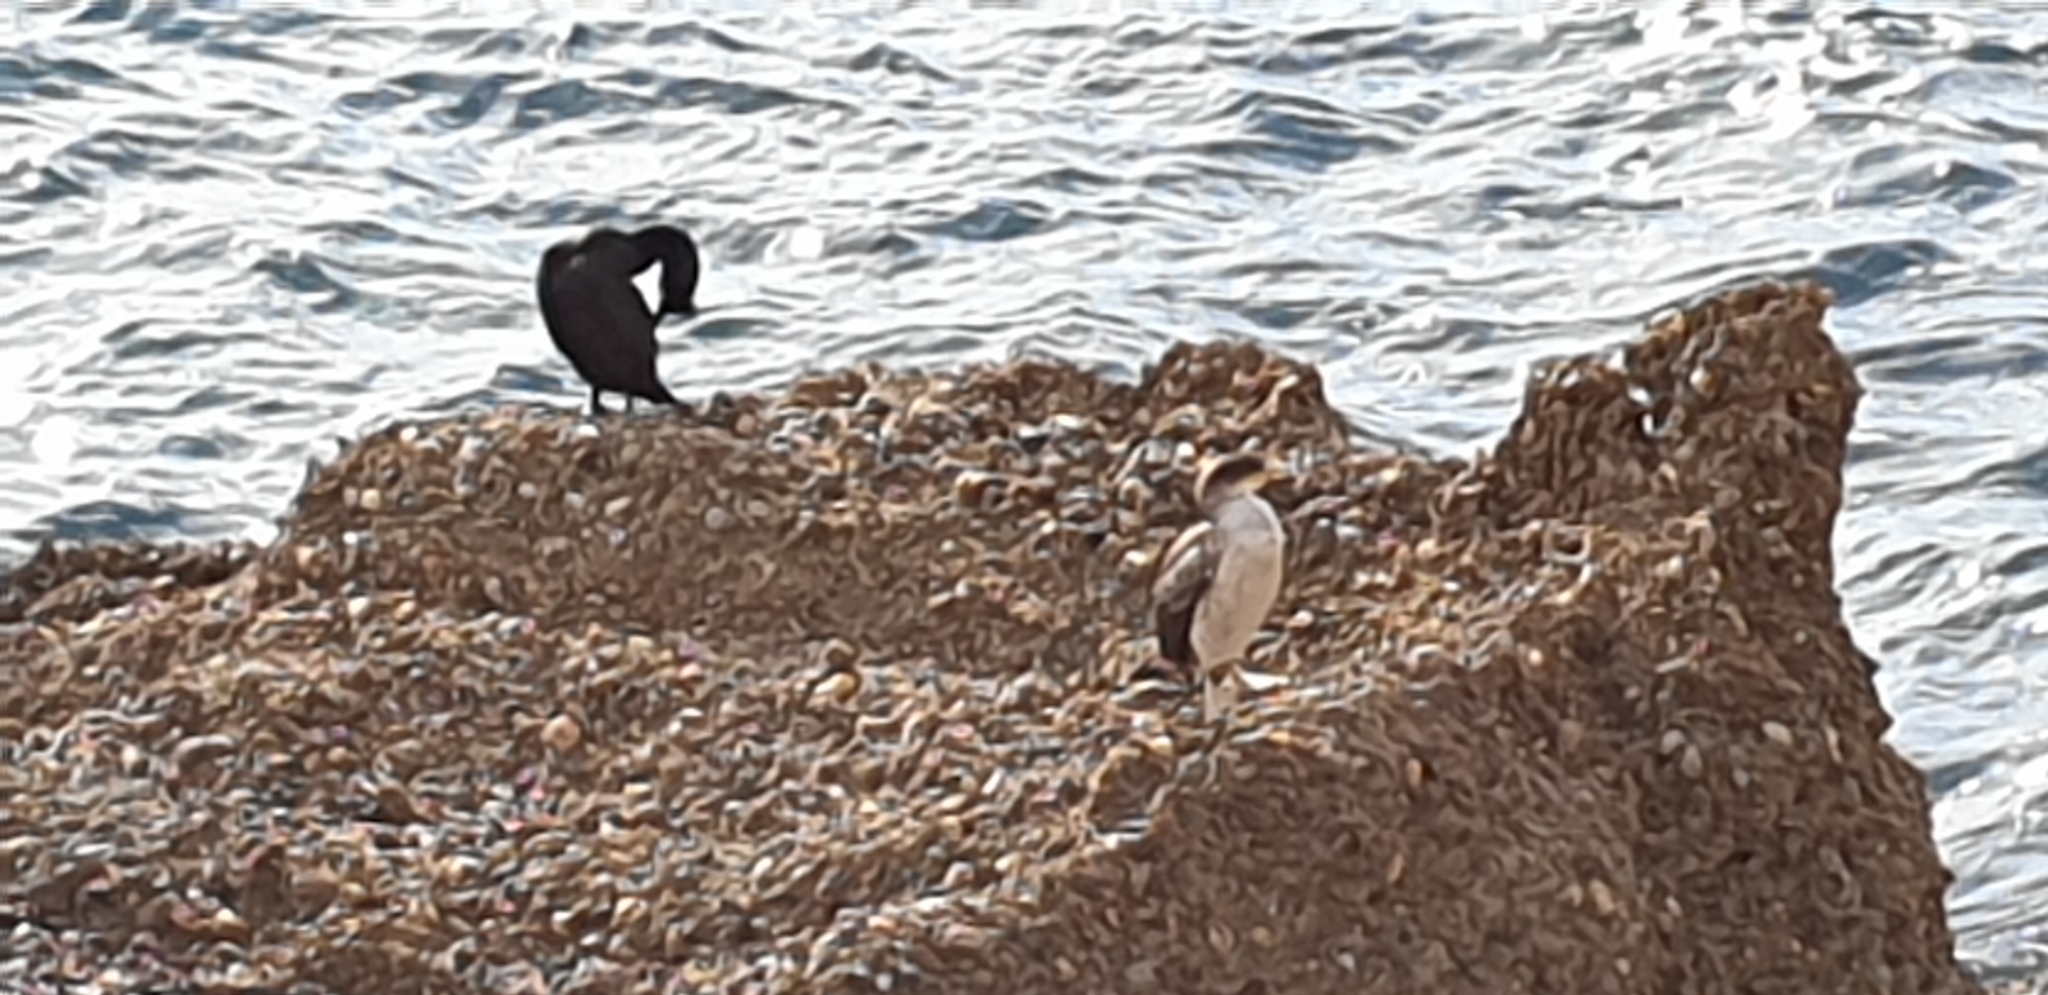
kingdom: Animalia
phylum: Chordata
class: Aves
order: Suliformes
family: Phalacrocoracidae
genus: Phalacrocorax
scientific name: Phalacrocorax aristotelis
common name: European shag
